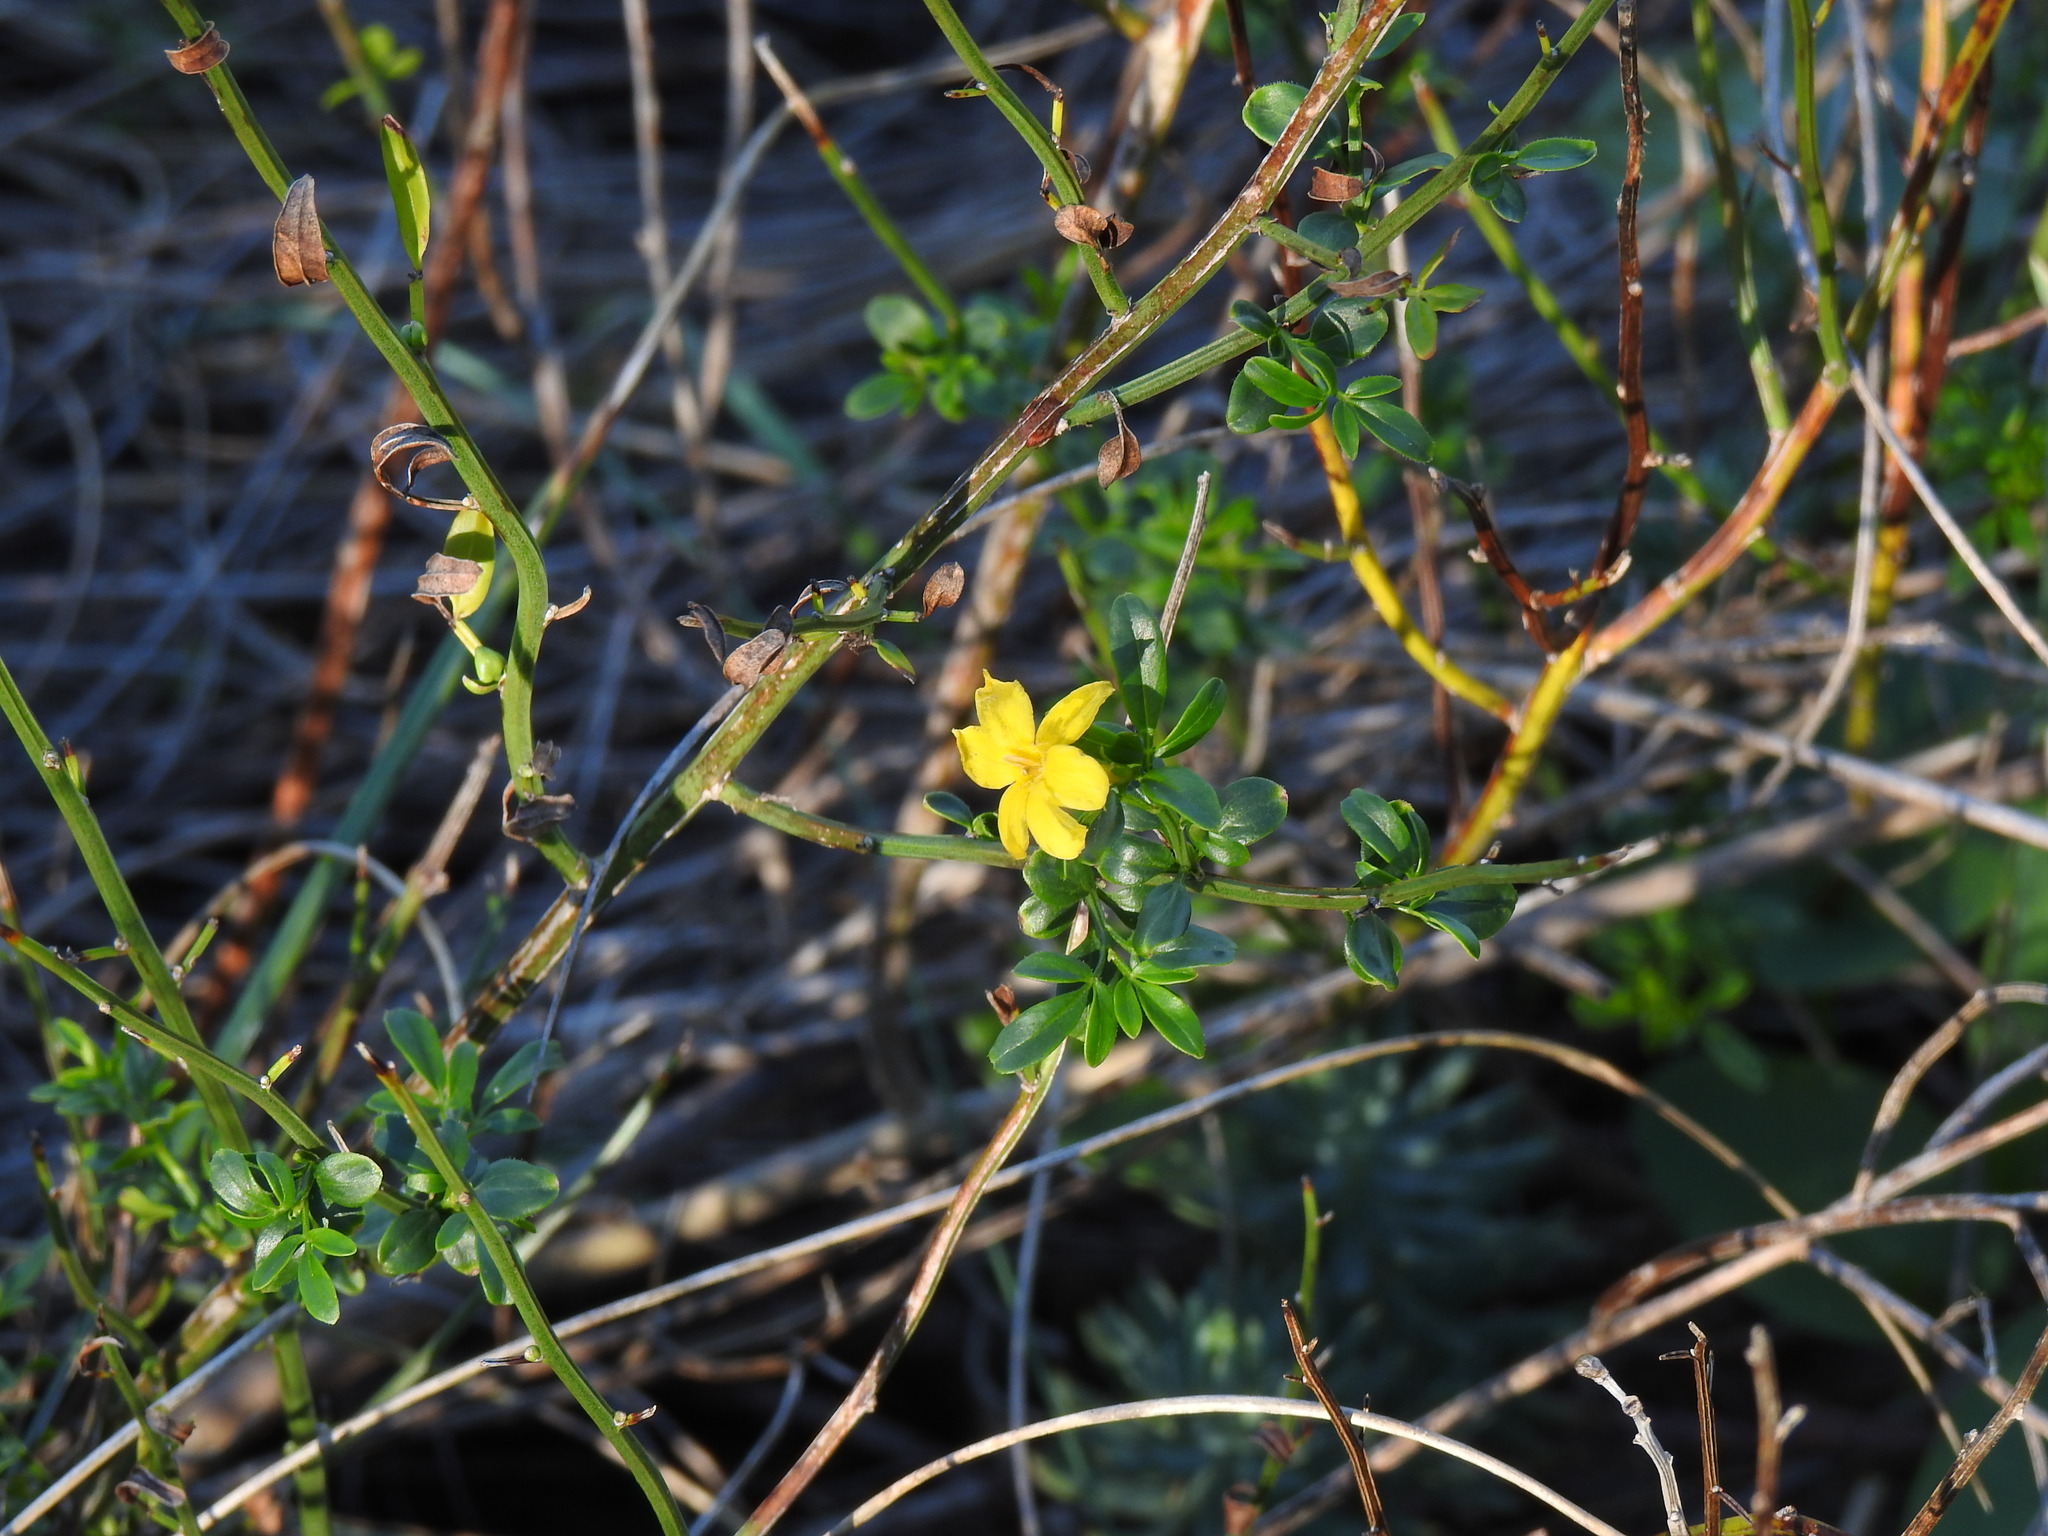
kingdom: Plantae
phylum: Tracheophyta
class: Magnoliopsida
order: Lamiales
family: Oleaceae
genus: Chrysojasminum
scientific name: Chrysojasminum fruticans
